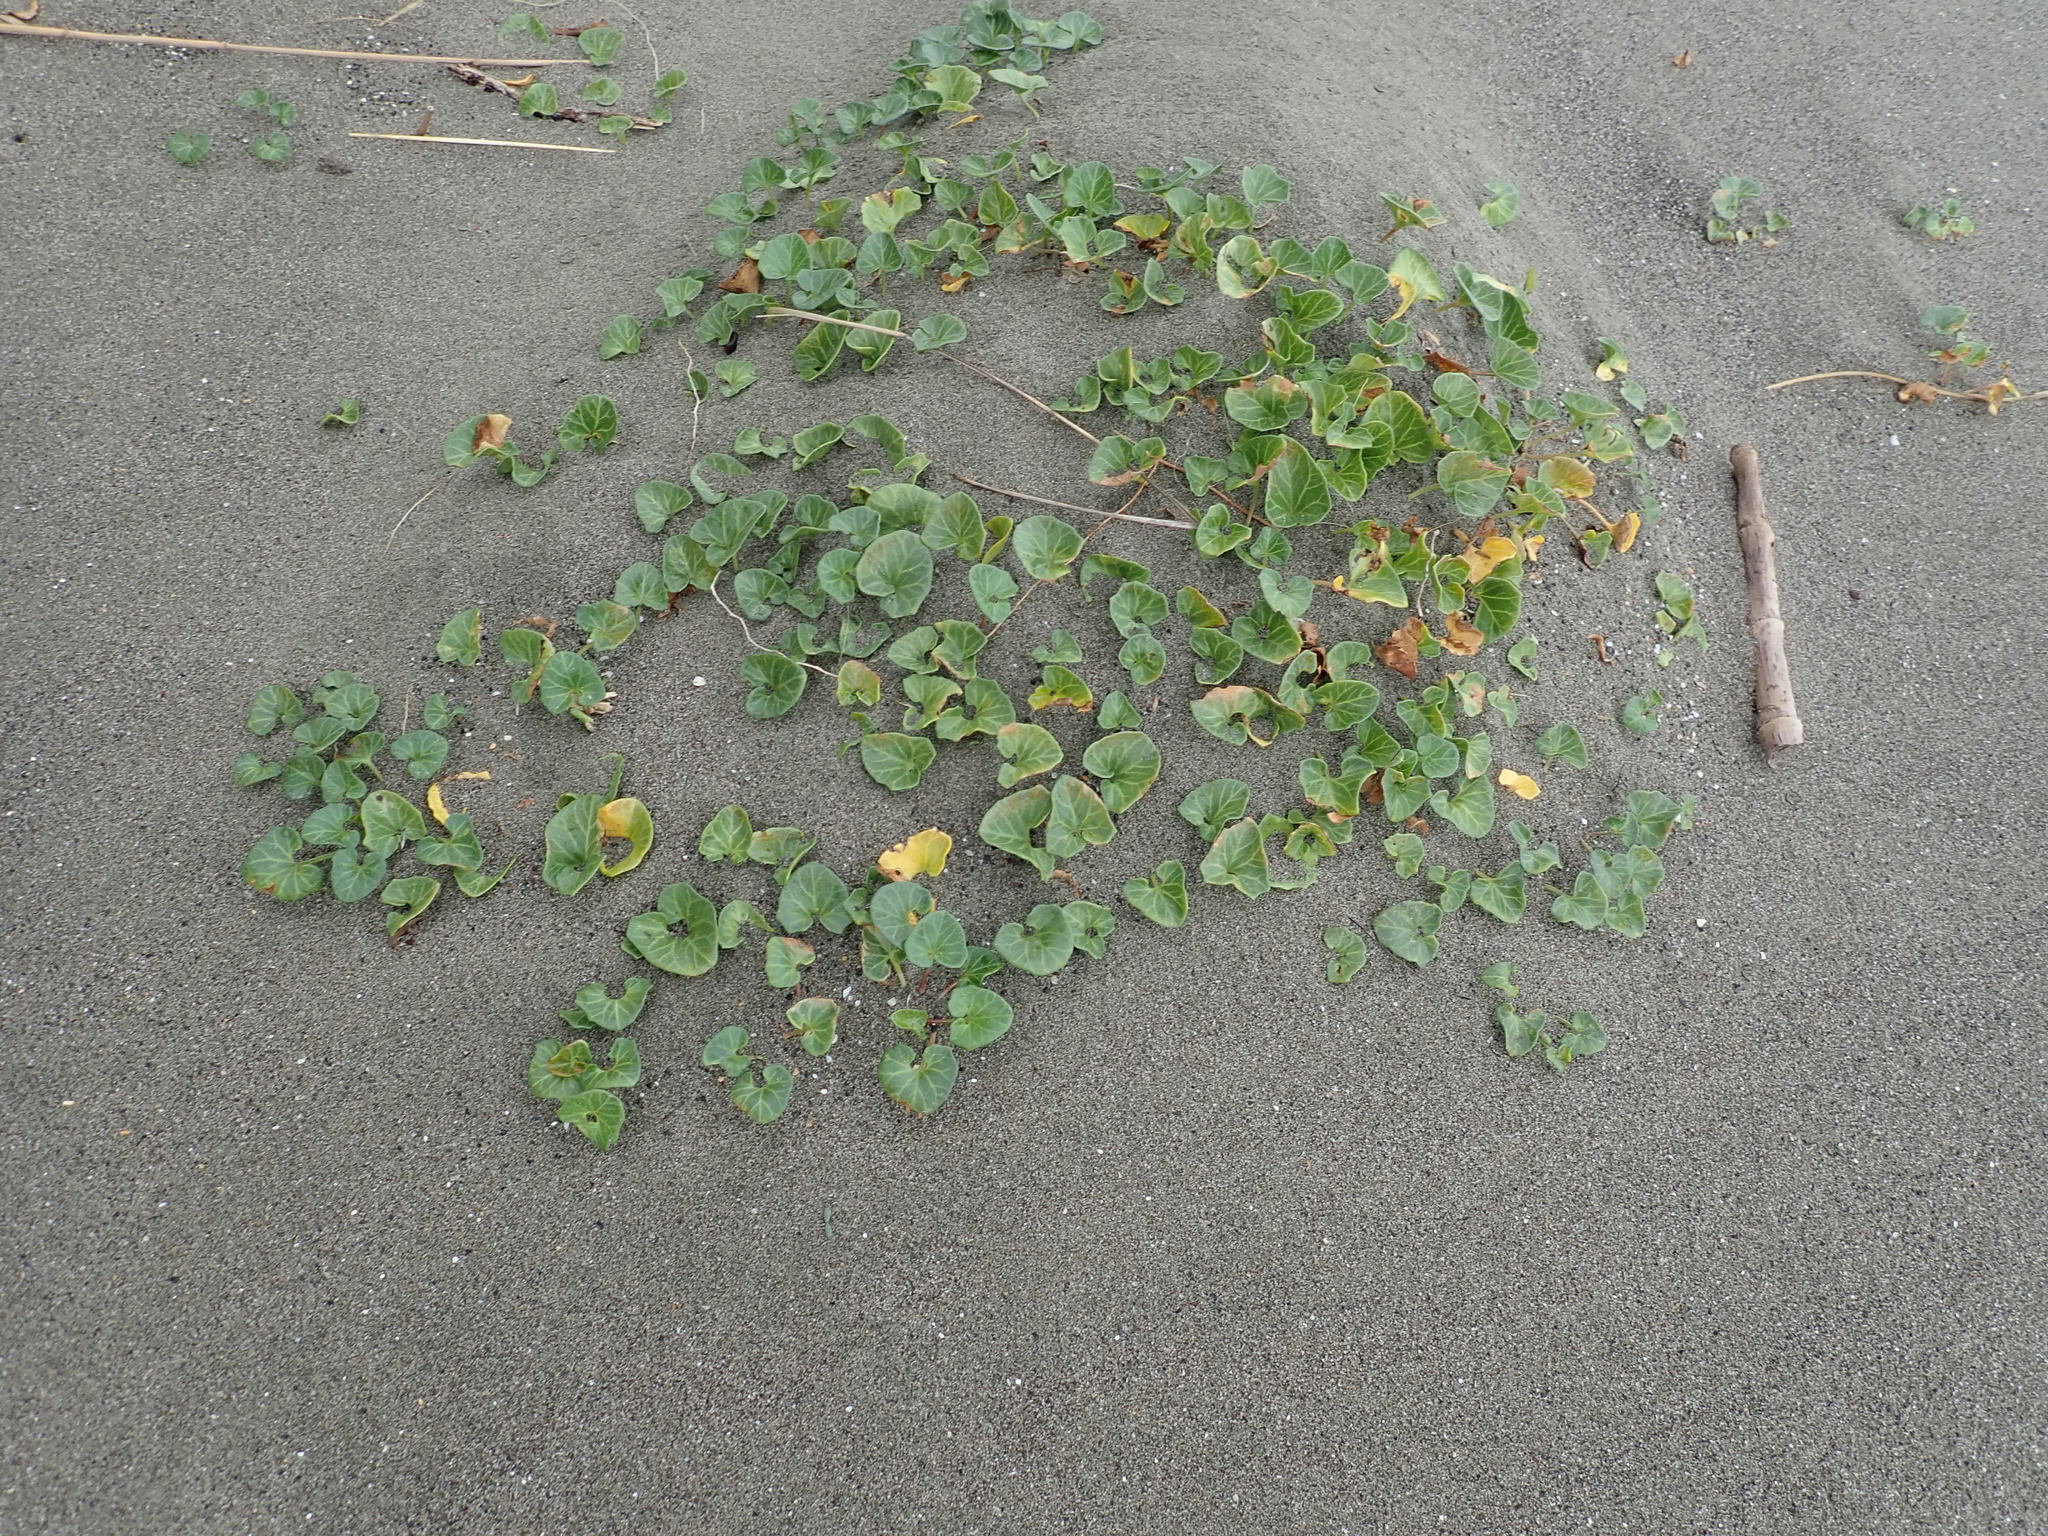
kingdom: Plantae
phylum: Tracheophyta
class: Magnoliopsida
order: Solanales
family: Convolvulaceae
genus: Calystegia
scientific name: Calystegia soldanella
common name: Sea bindweed
